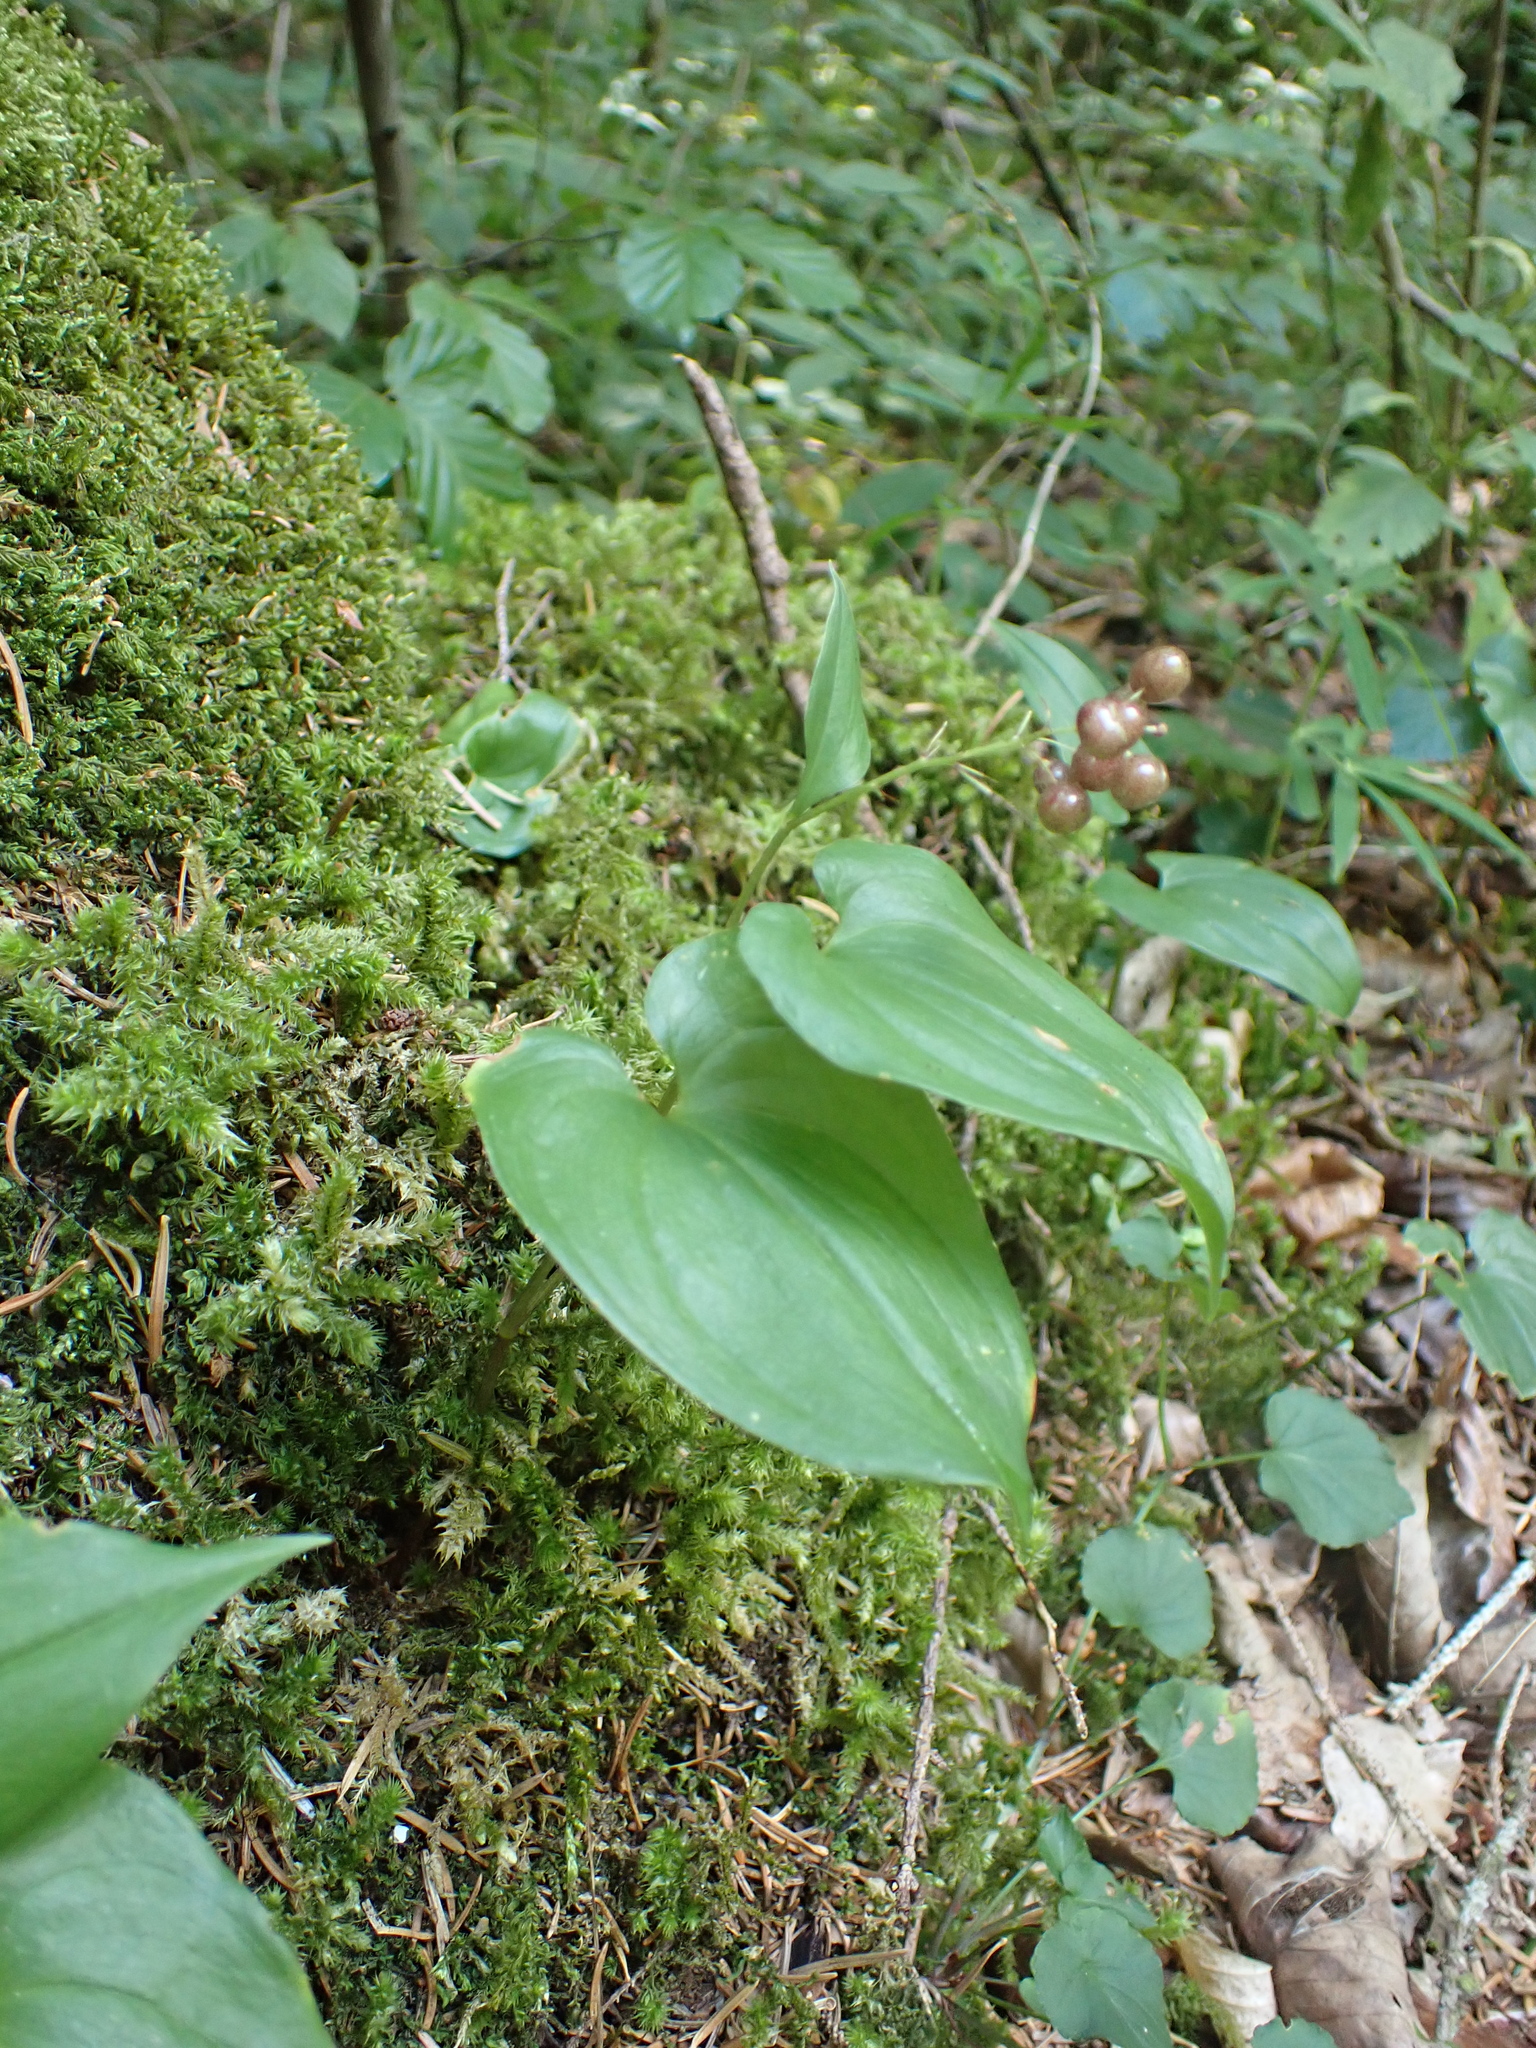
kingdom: Plantae
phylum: Tracheophyta
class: Liliopsida
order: Asparagales
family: Asparagaceae
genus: Maianthemum
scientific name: Maianthemum bifolium
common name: May lily
